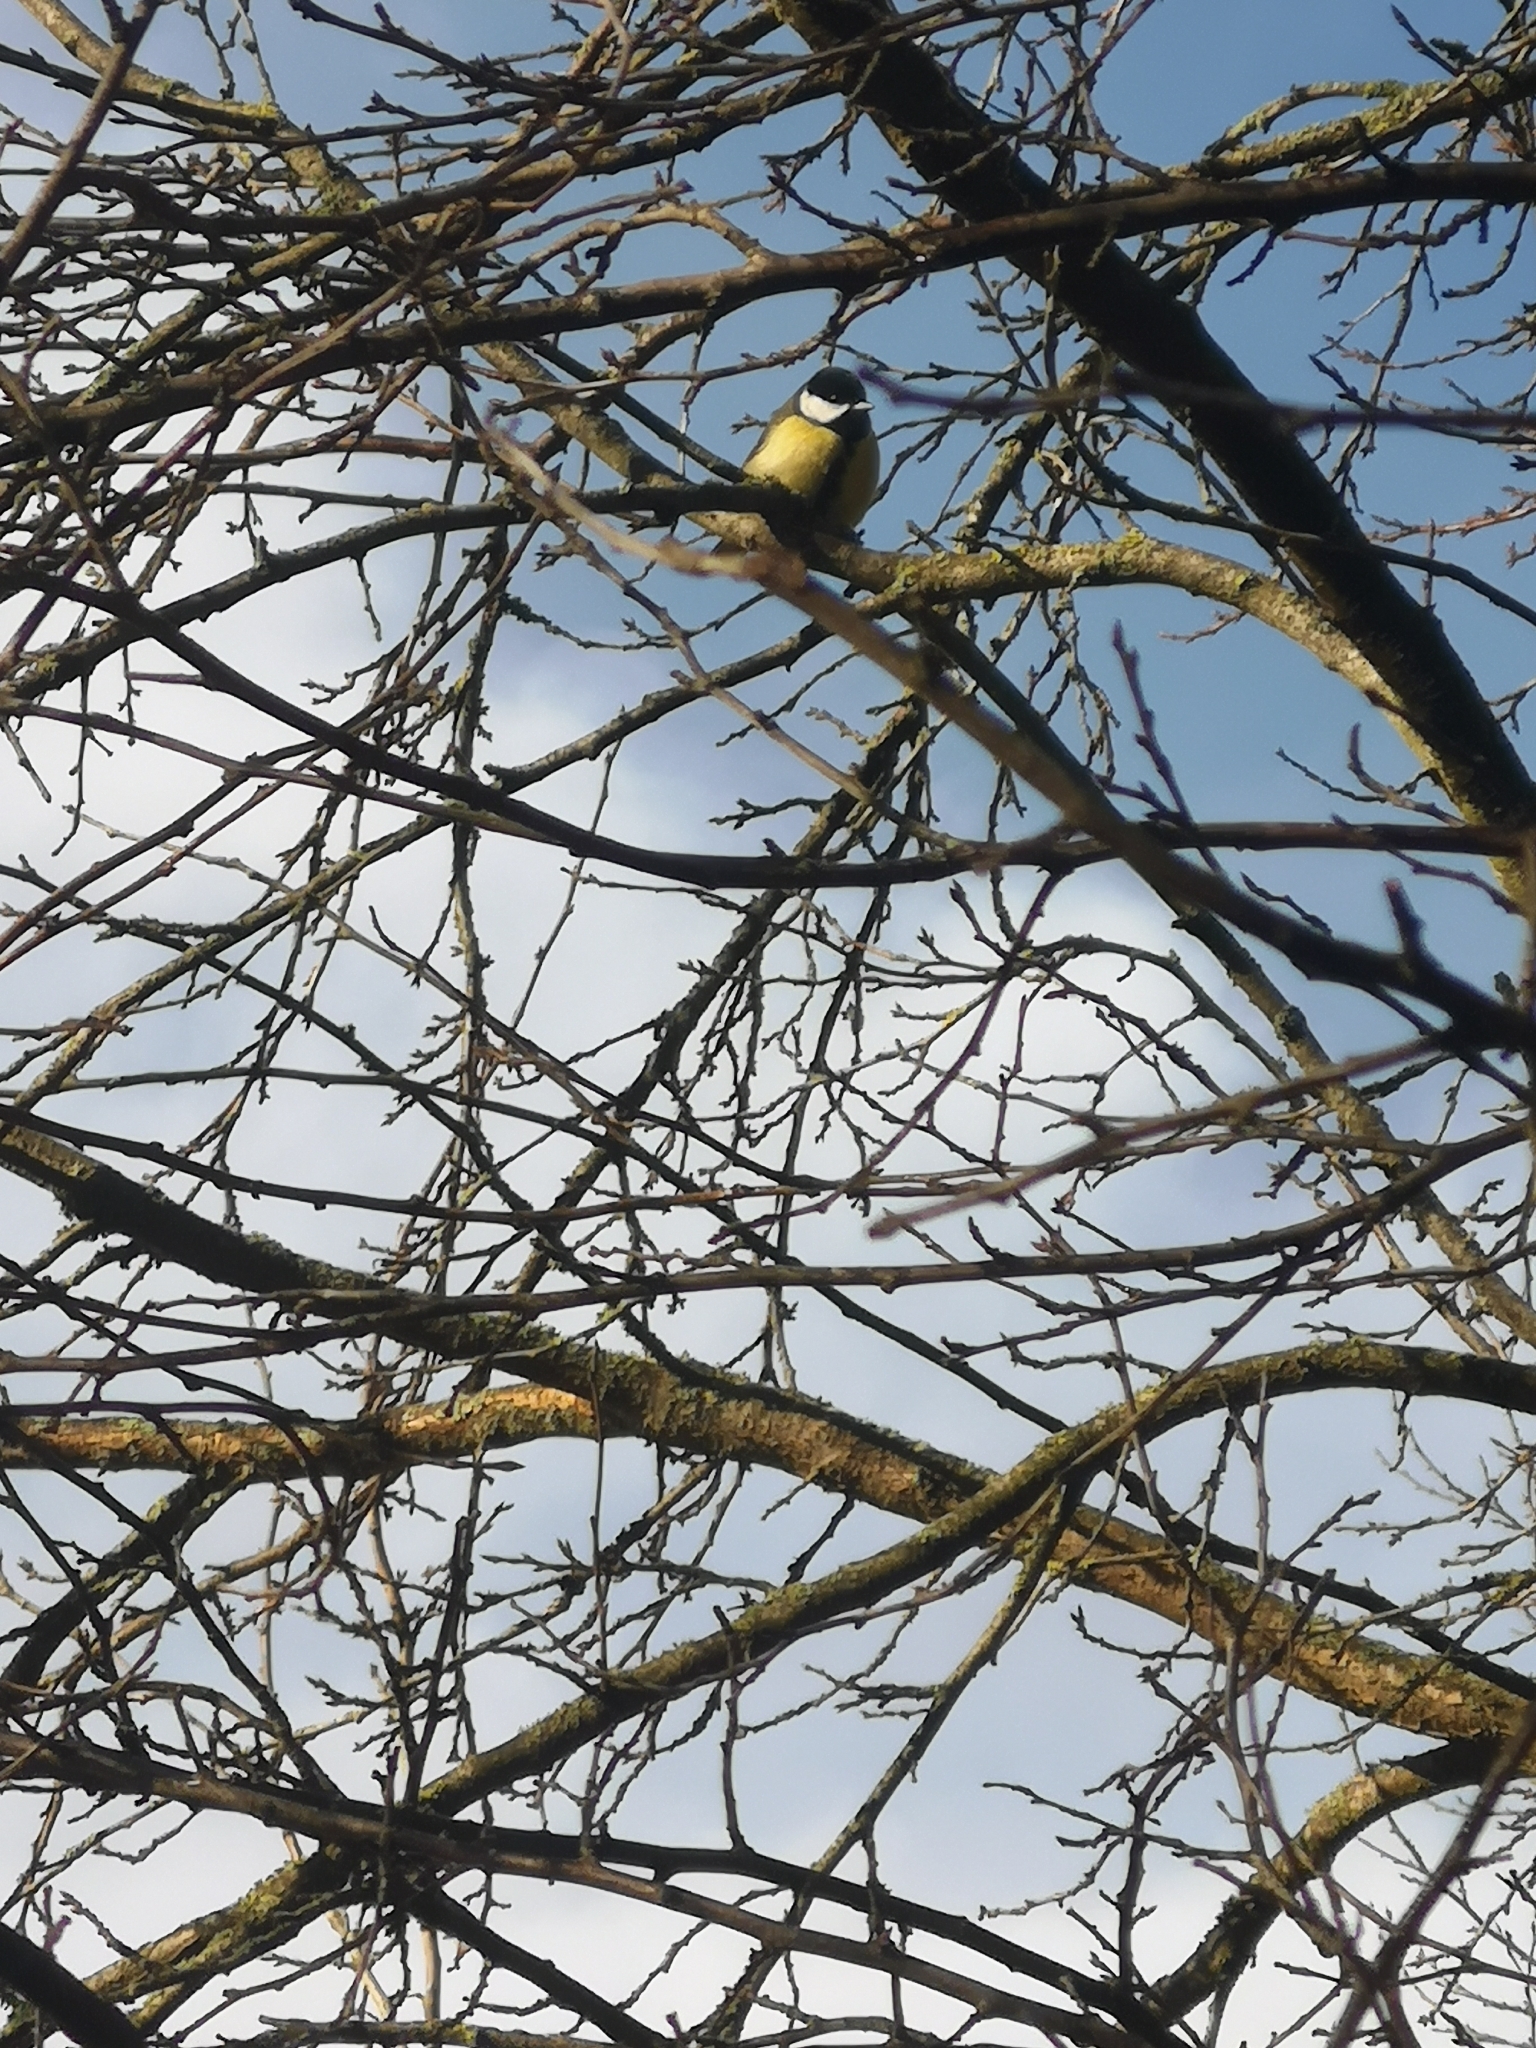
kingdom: Animalia
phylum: Chordata
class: Aves
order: Passeriformes
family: Paridae
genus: Parus
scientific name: Parus major
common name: Great tit
